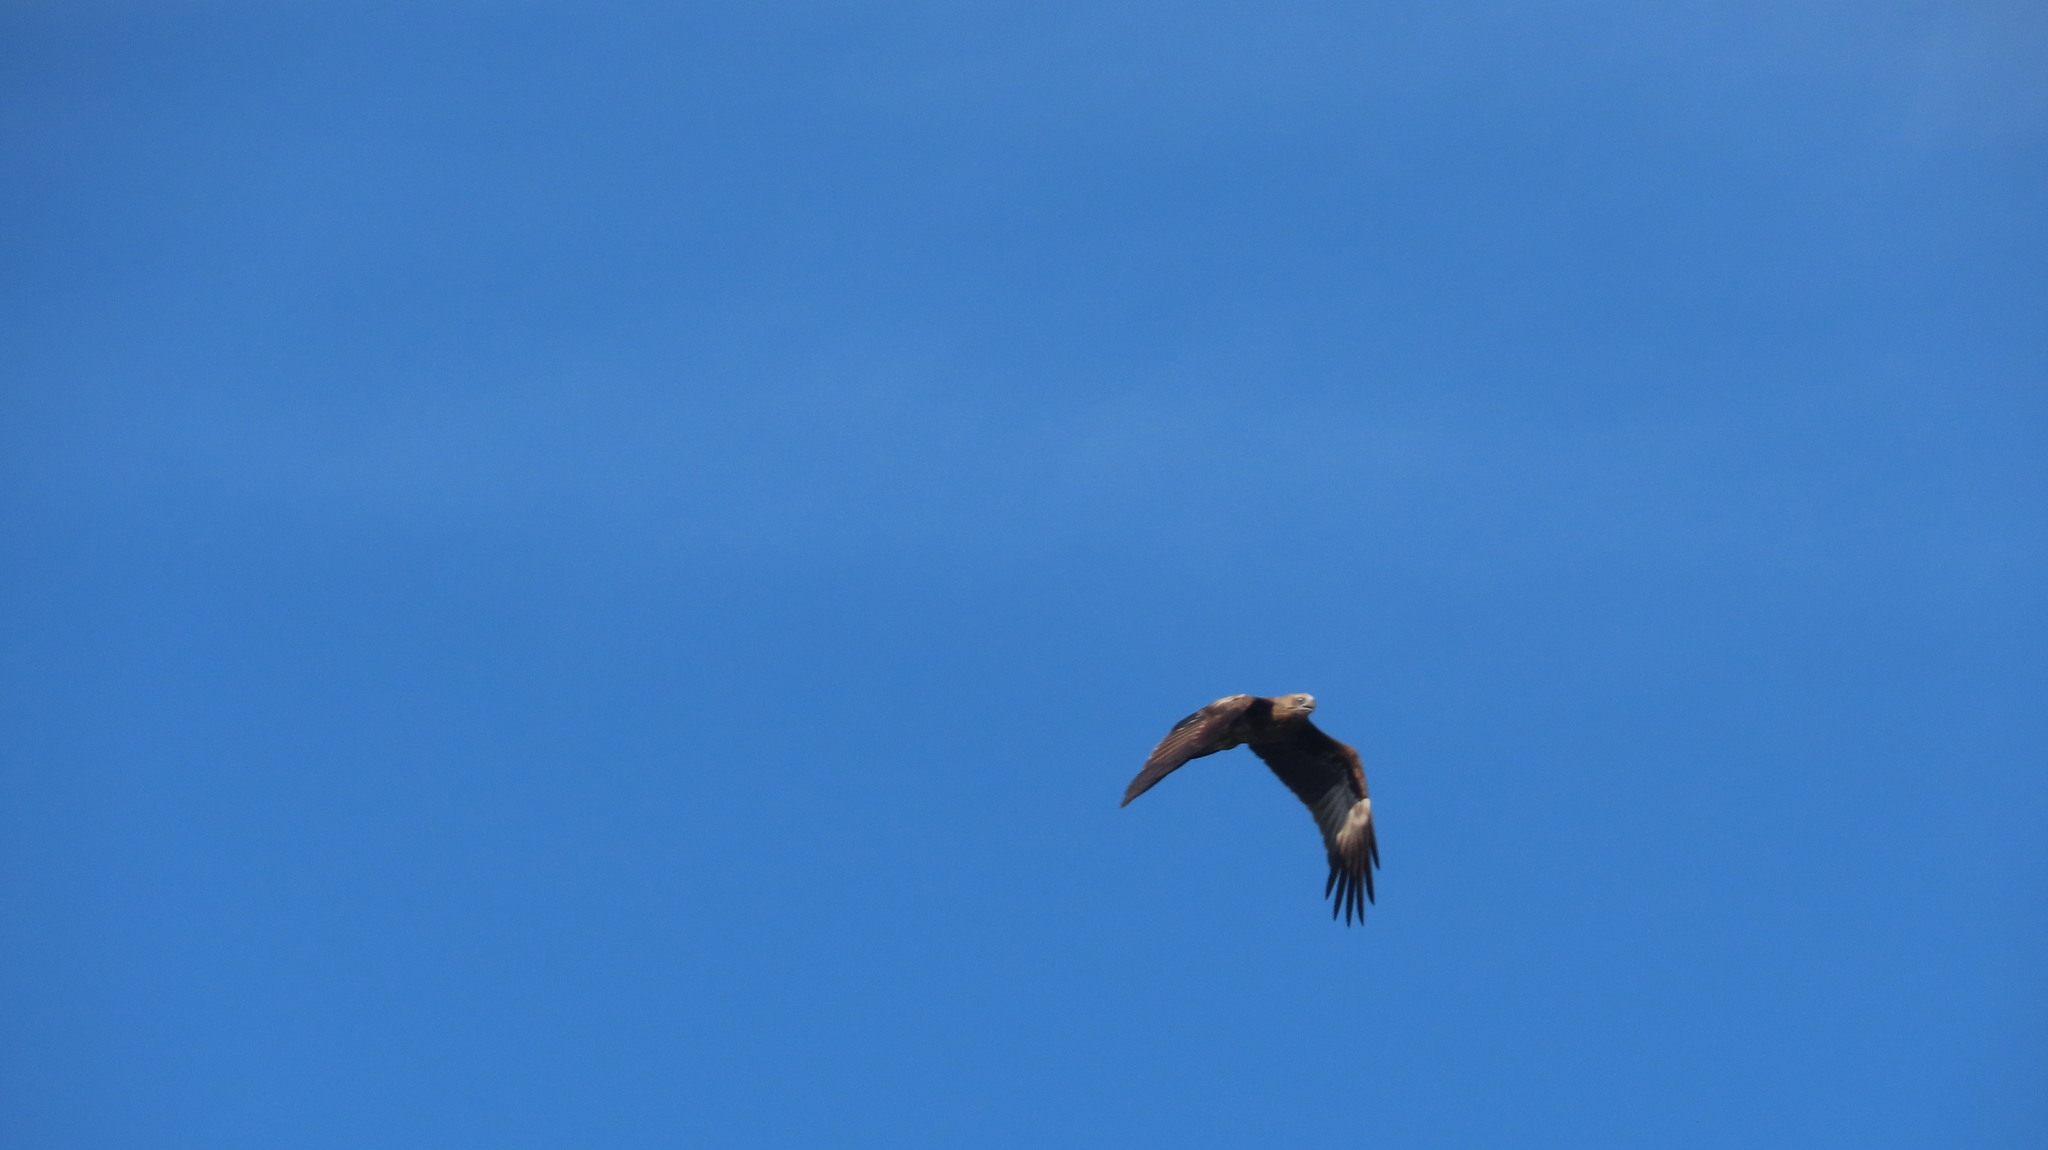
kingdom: Animalia
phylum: Chordata
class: Aves
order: Accipitriformes
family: Accipitridae
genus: Haliastur
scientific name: Haliastur indus
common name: Brahminy kite
